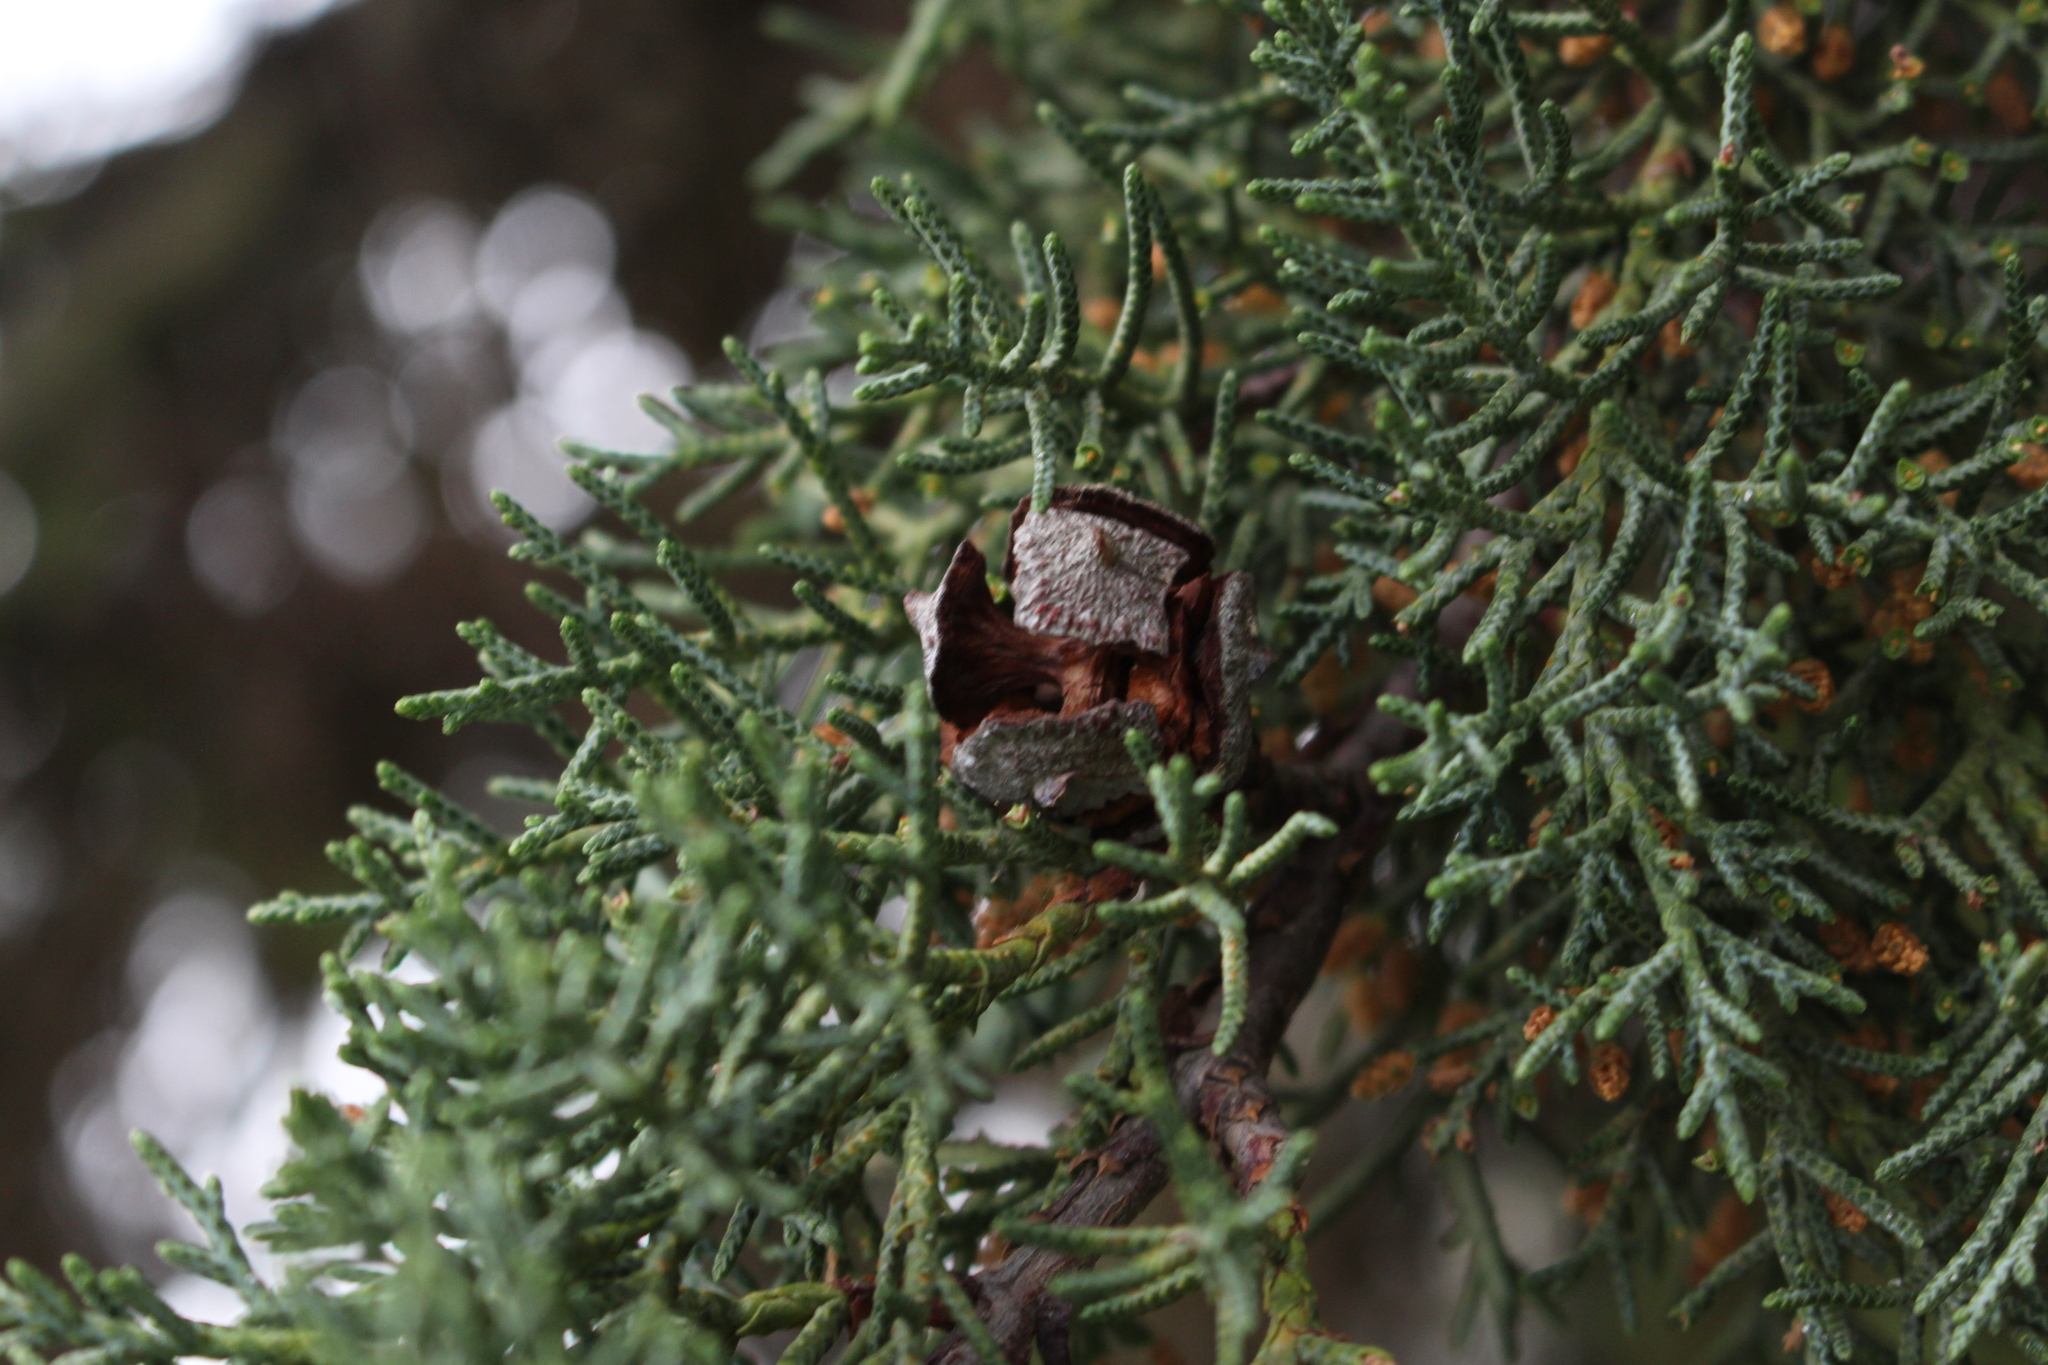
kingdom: Plantae
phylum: Tracheophyta
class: Pinopsida
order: Pinales
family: Cupressaceae
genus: Cupressus
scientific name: Cupressus macrocarpa
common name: Monterey cypress
